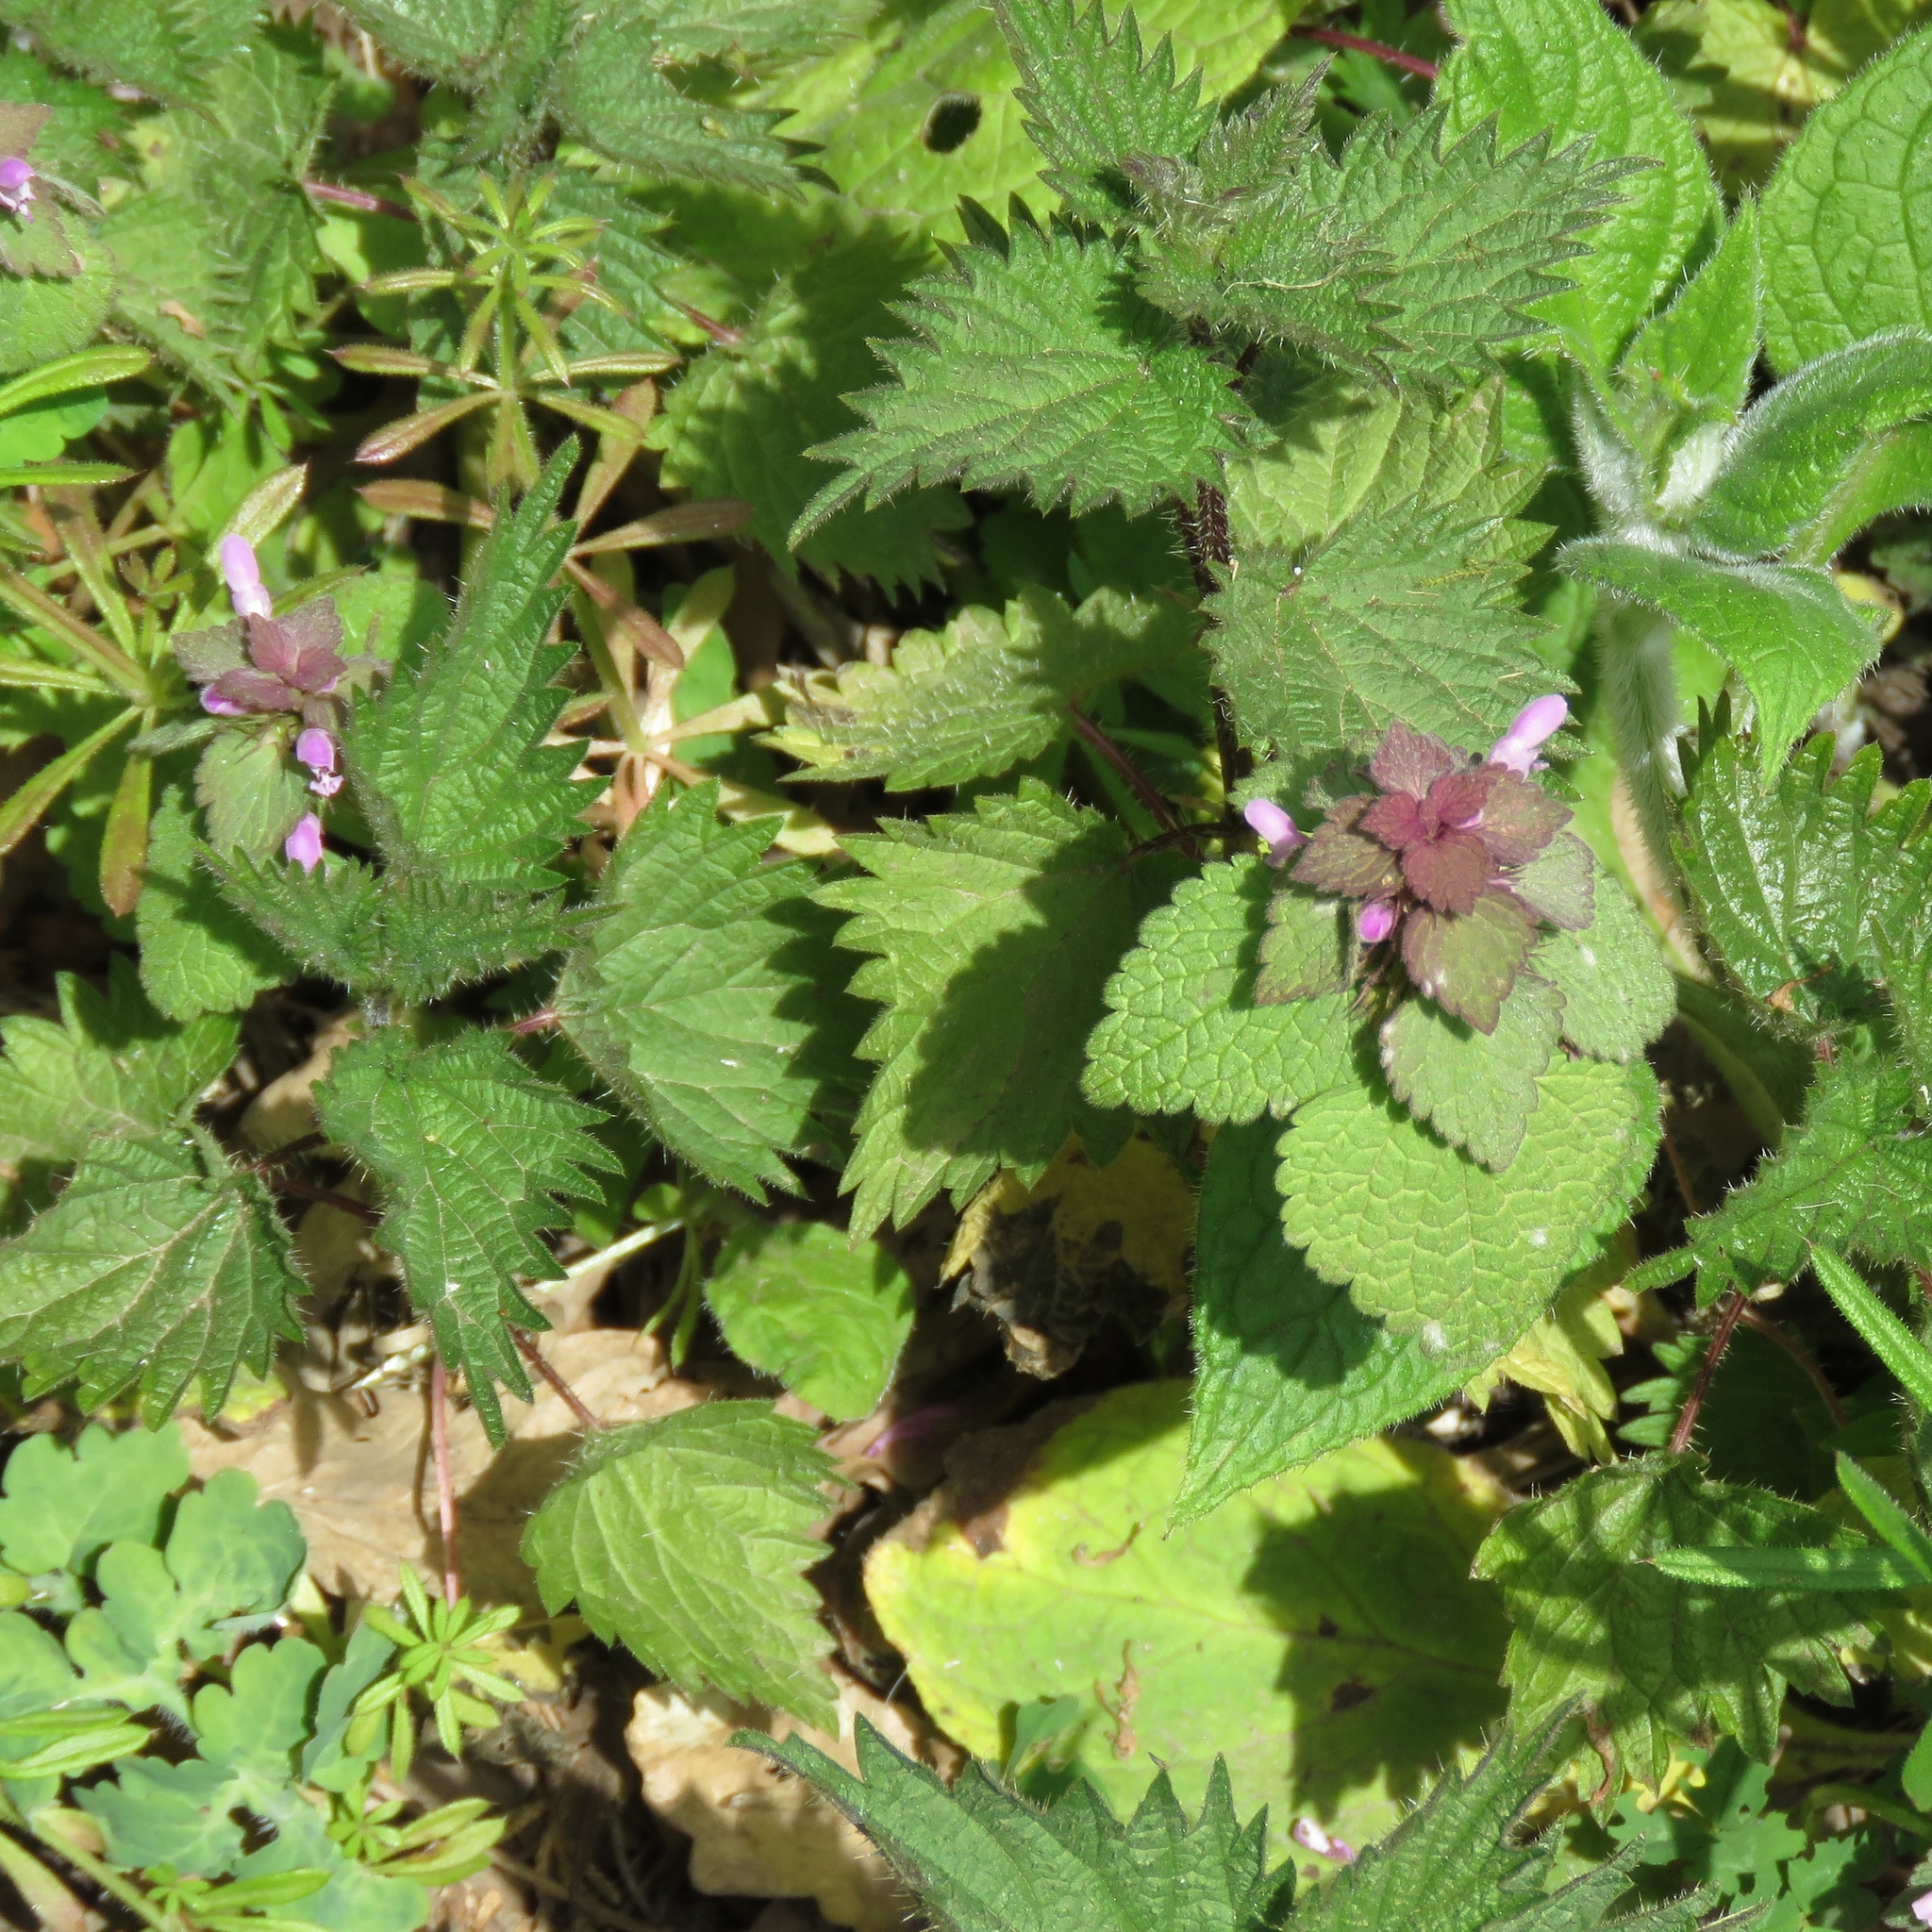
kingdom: Plantae
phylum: Tracheophyta
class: Magnoliopsida
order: Lamiales
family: Lamiaceae
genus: Lamium
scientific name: Lamium purpureum
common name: Red dead-nettle
